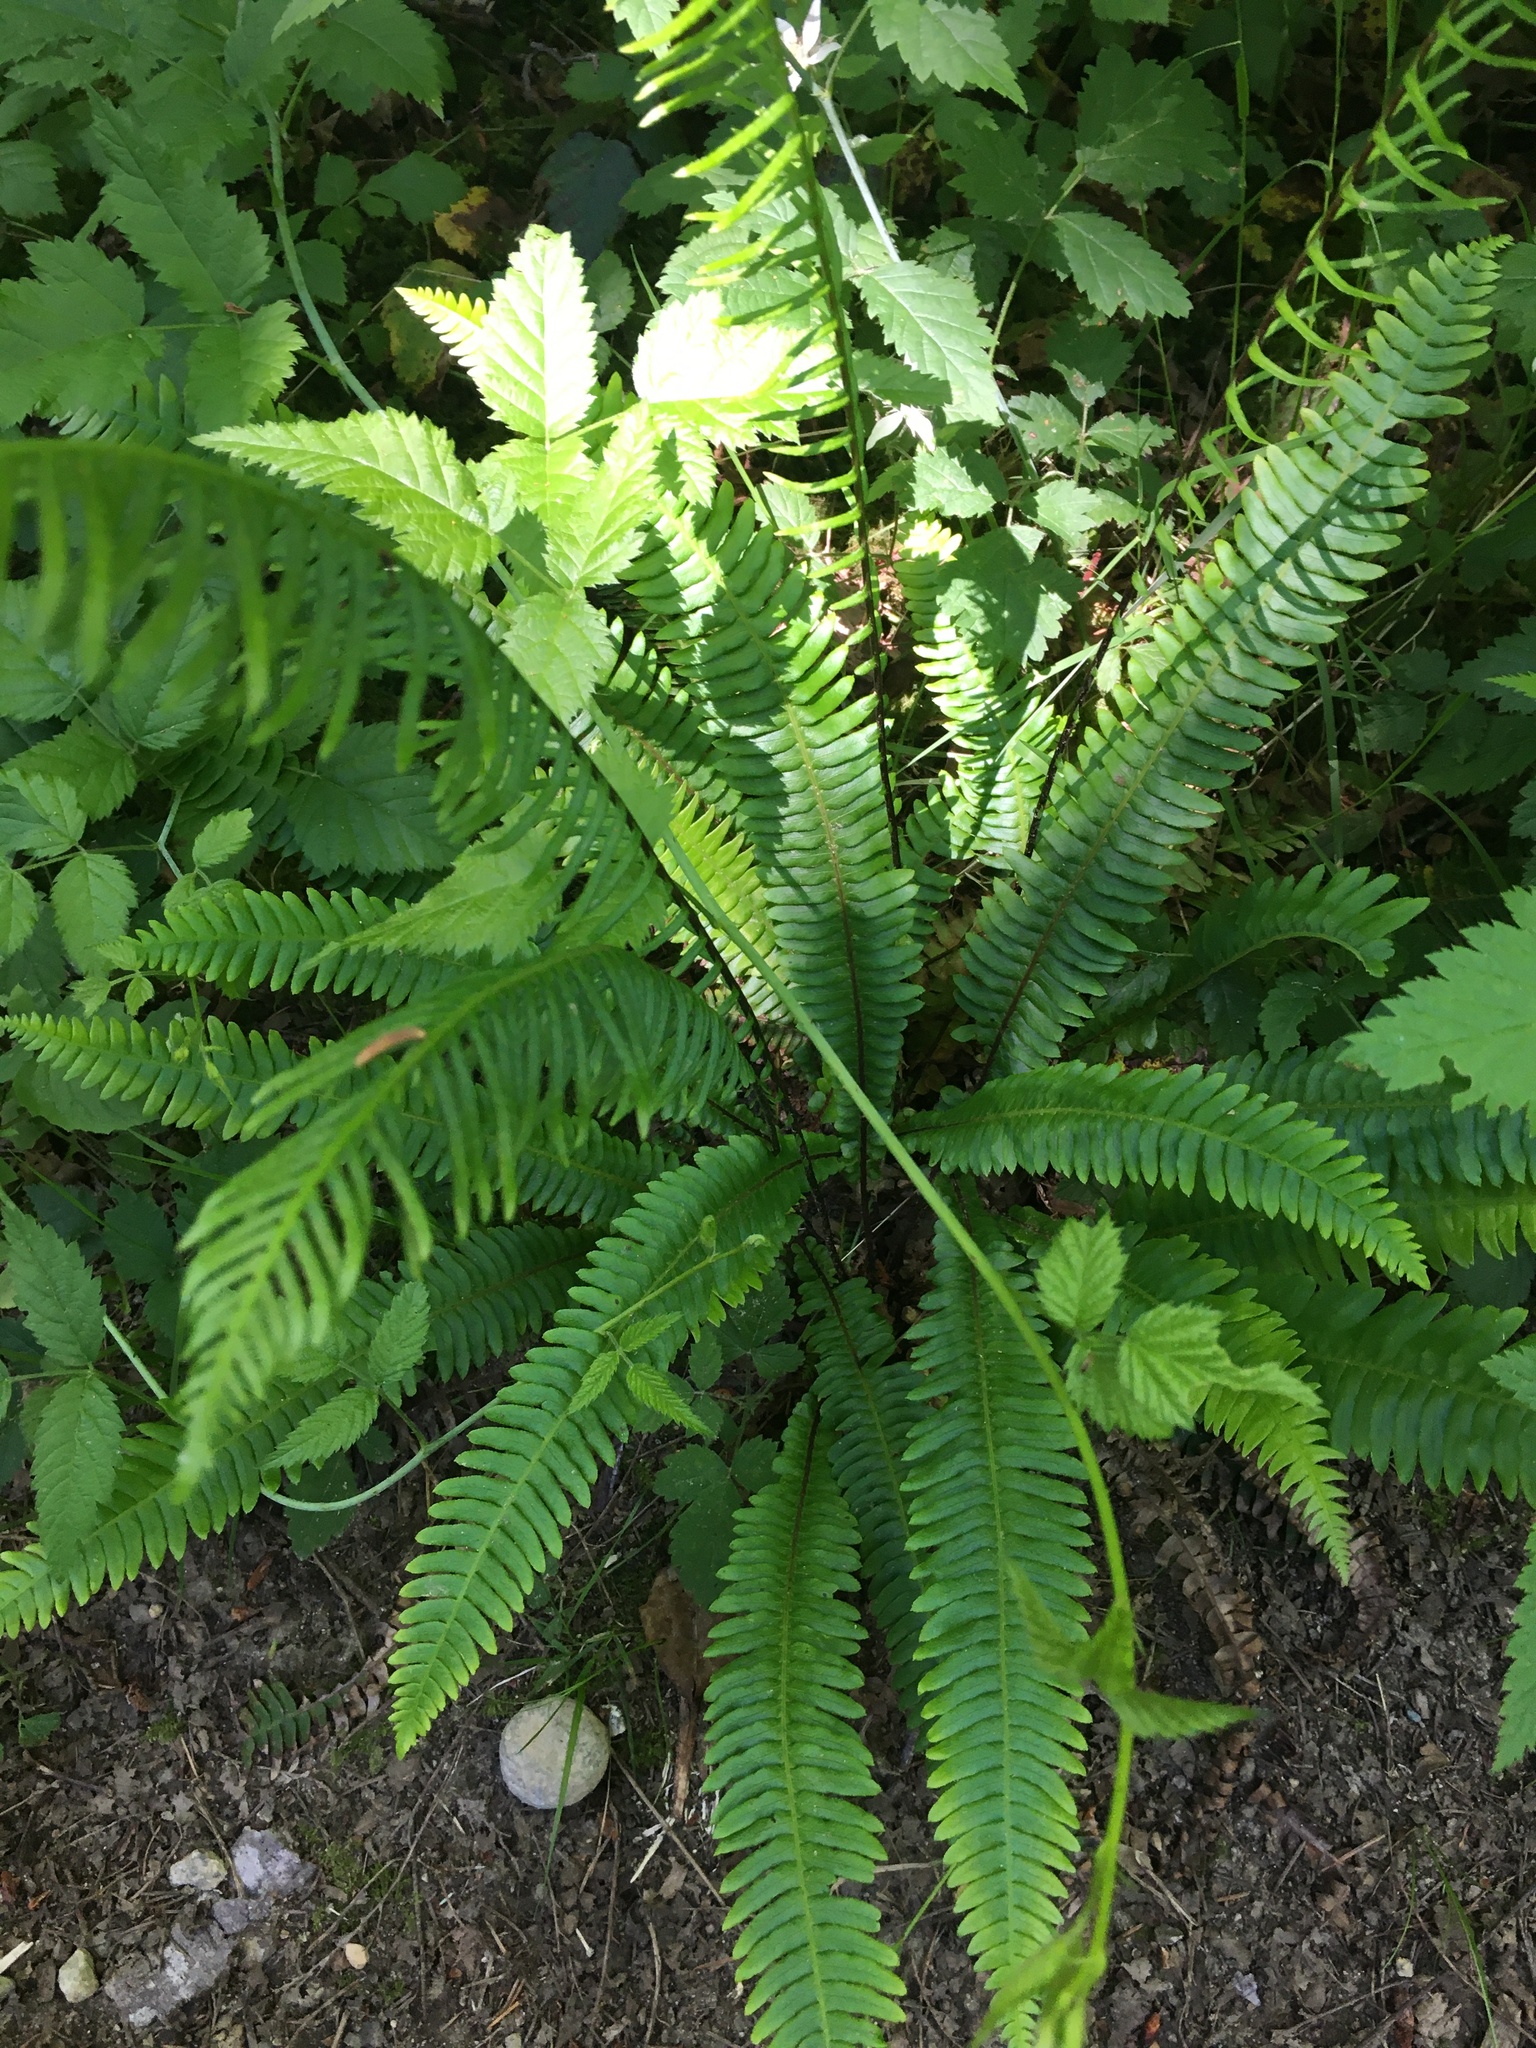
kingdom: Plantae
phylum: Tracheophyta
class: Polypodiopsida
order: Polypodiales
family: Blechnaceae
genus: Struthiopteris
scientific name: Struthiopteris spicant
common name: Deer fern
